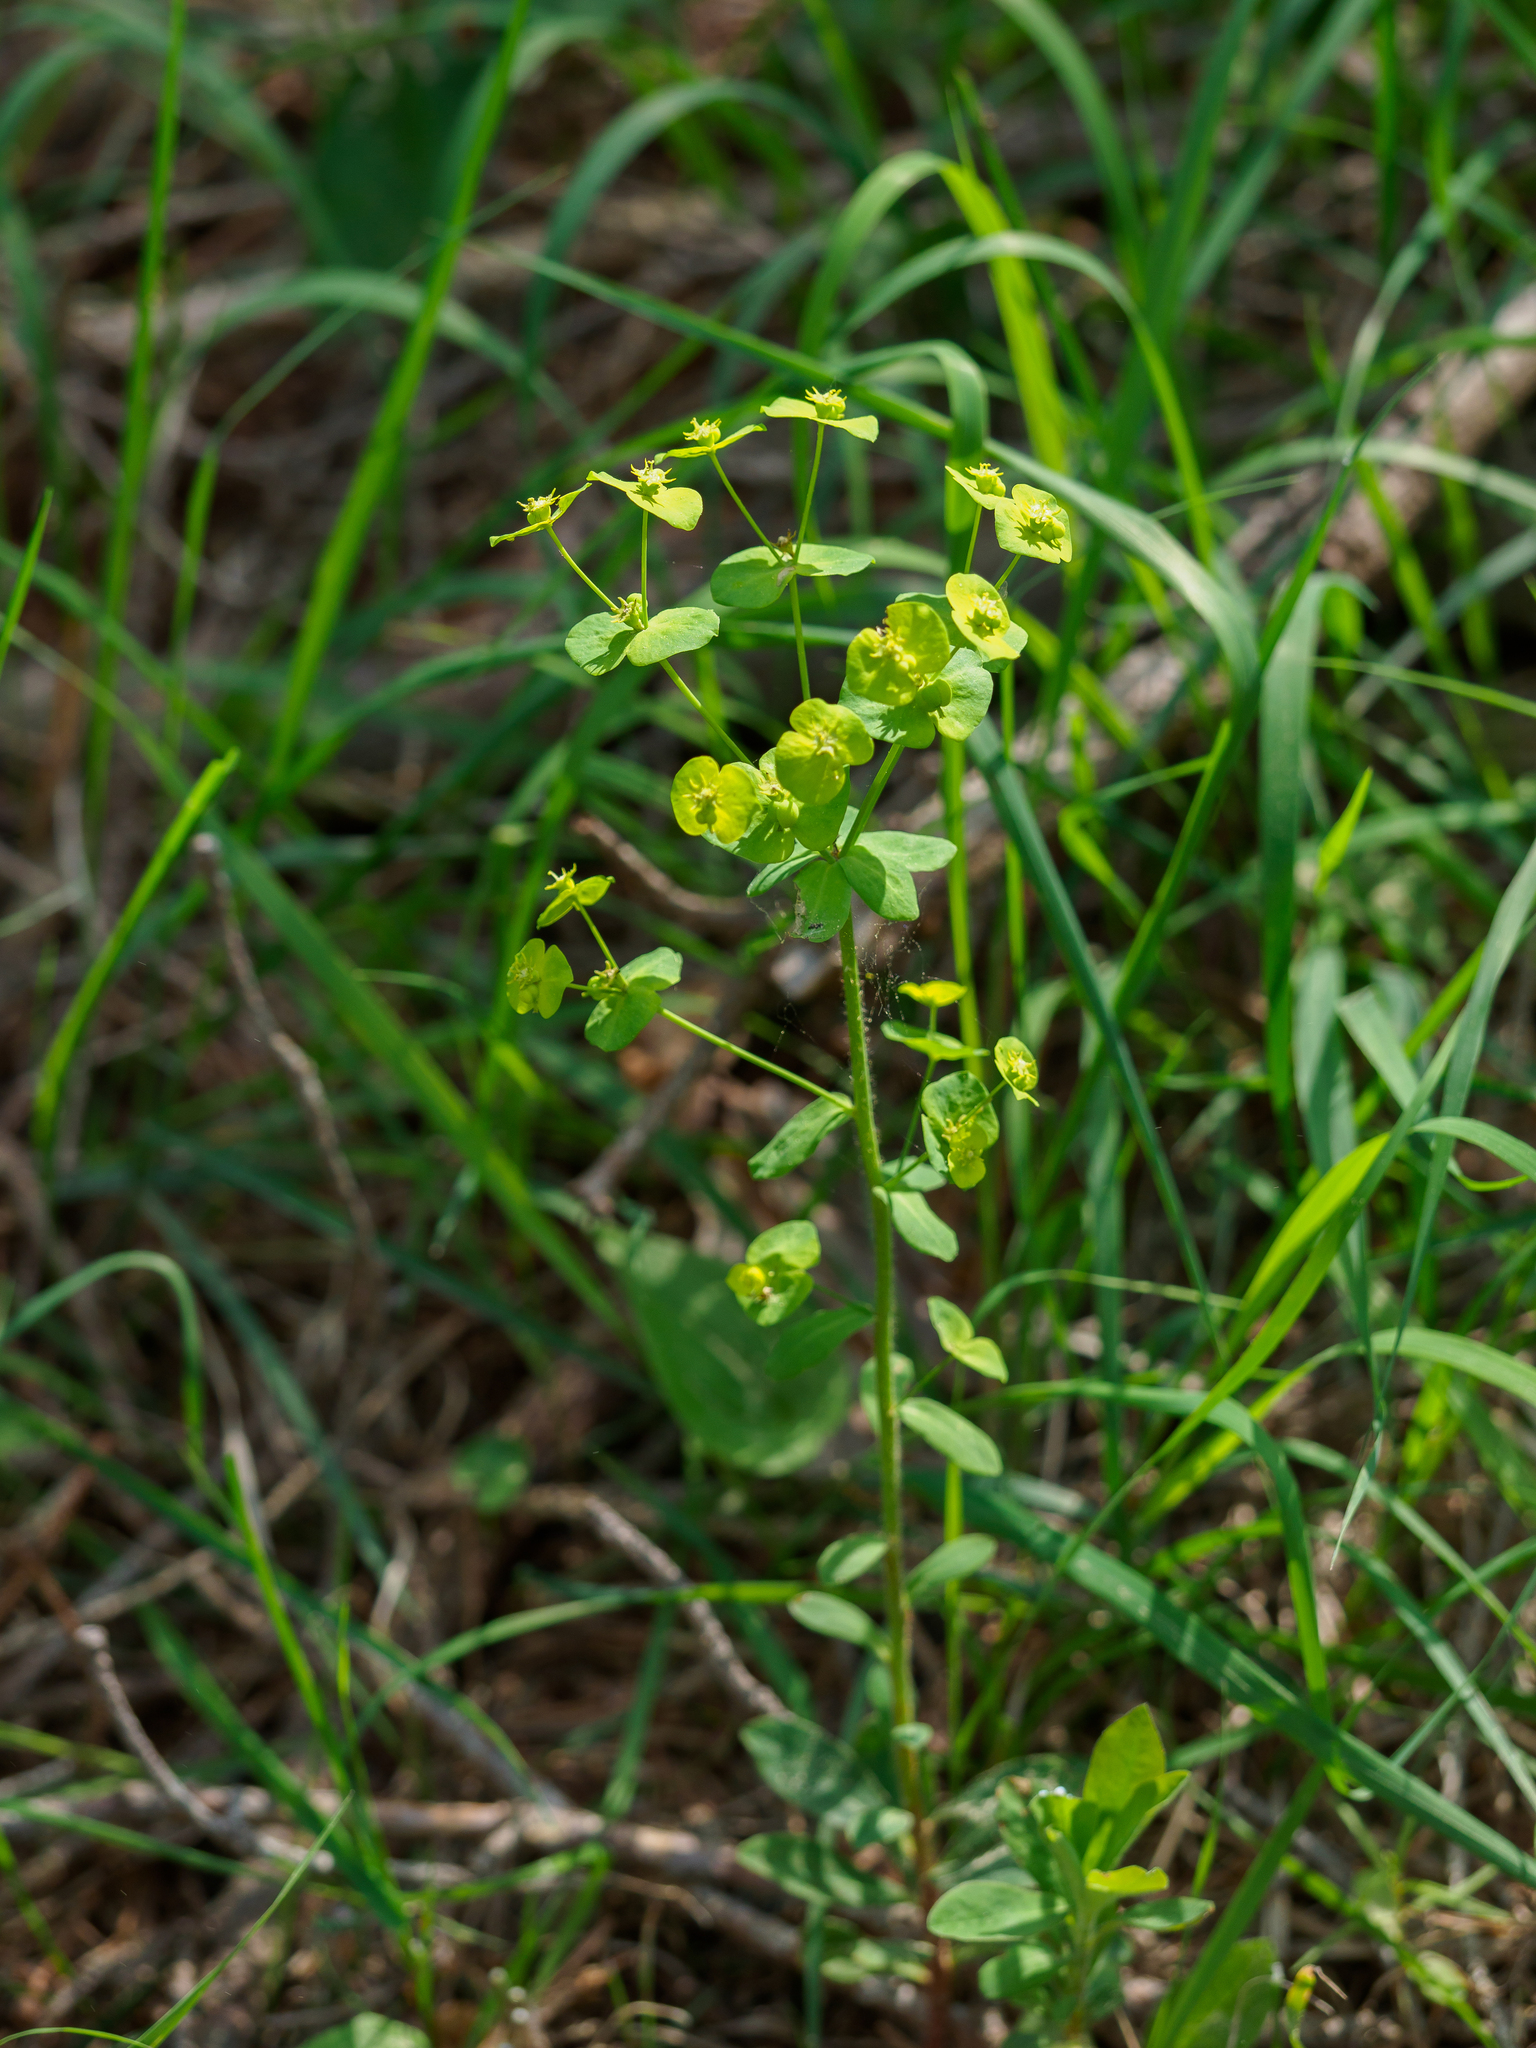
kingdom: Plantae
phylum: Tracheophyta
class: Magnoliopsida
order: Malpighiales
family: Euphorbiaceae
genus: Euphorbia
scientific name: Euphorbia amygdaloides
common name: Wood spurge
